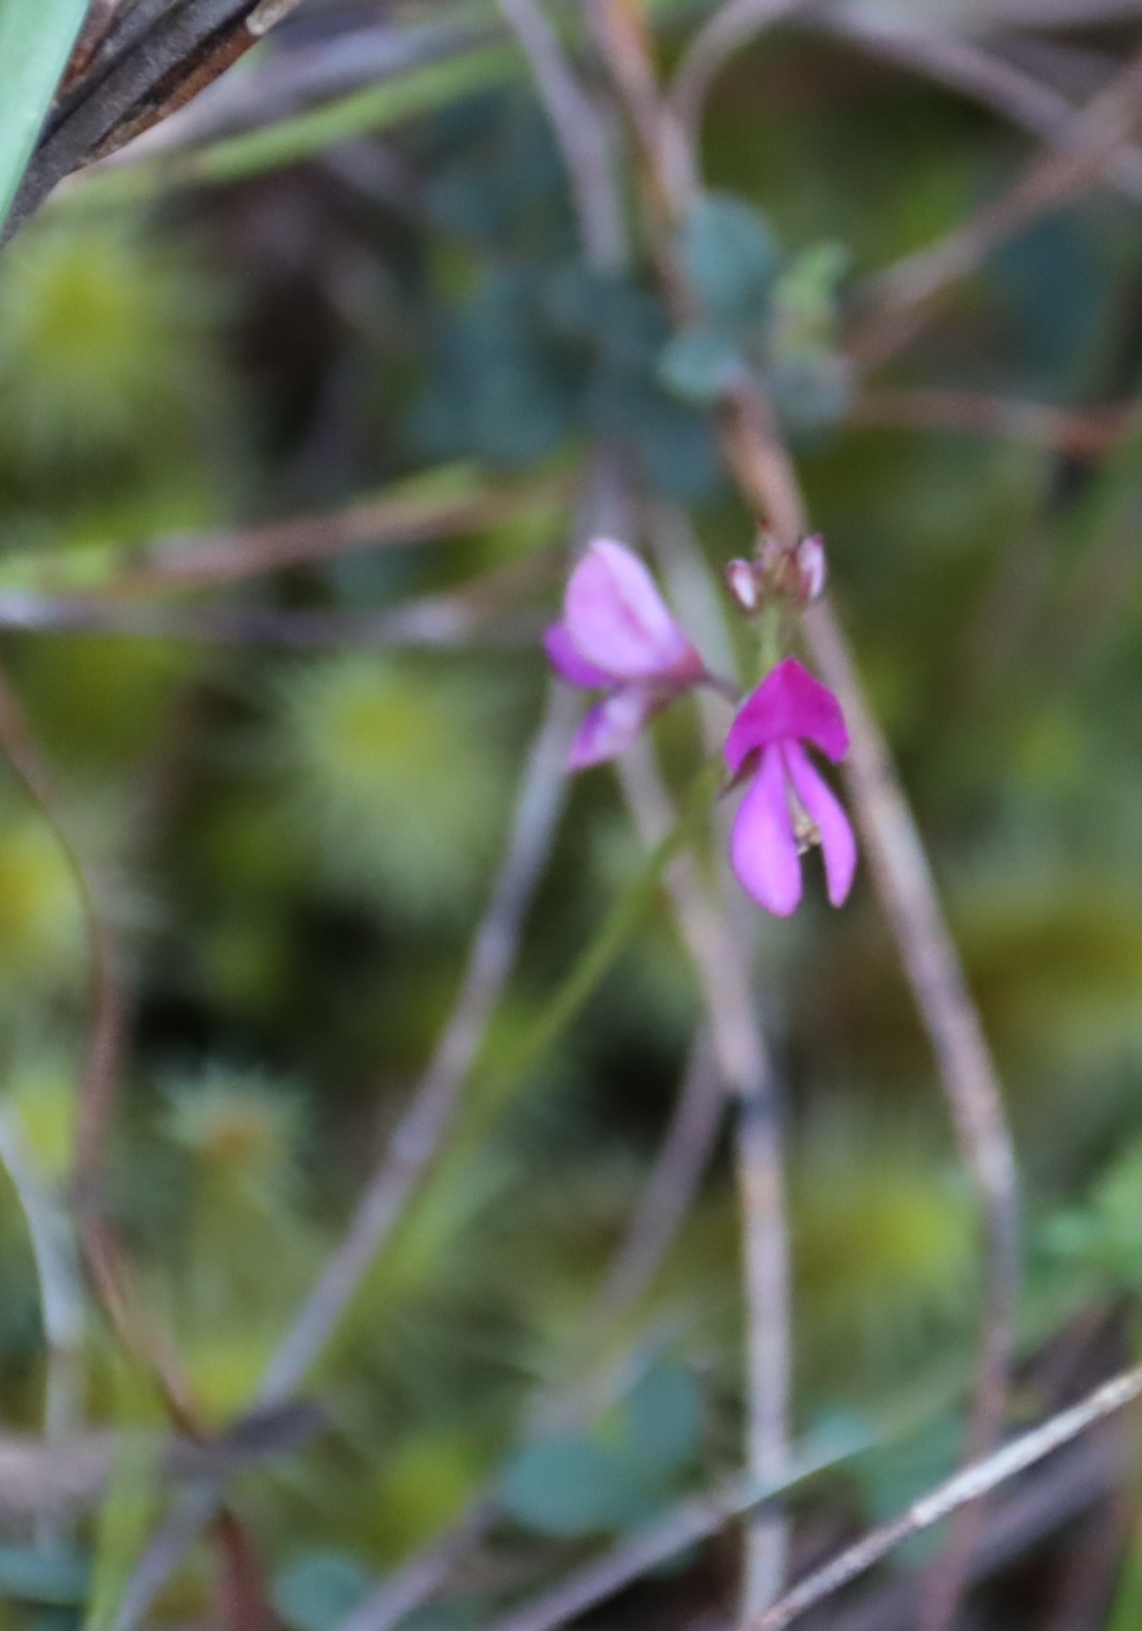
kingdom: Plantae
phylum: Tracheophyta
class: Magnoliopsida
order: Fabales
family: Fabaceae
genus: Indigofera
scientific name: Indigofera sarmentosa
